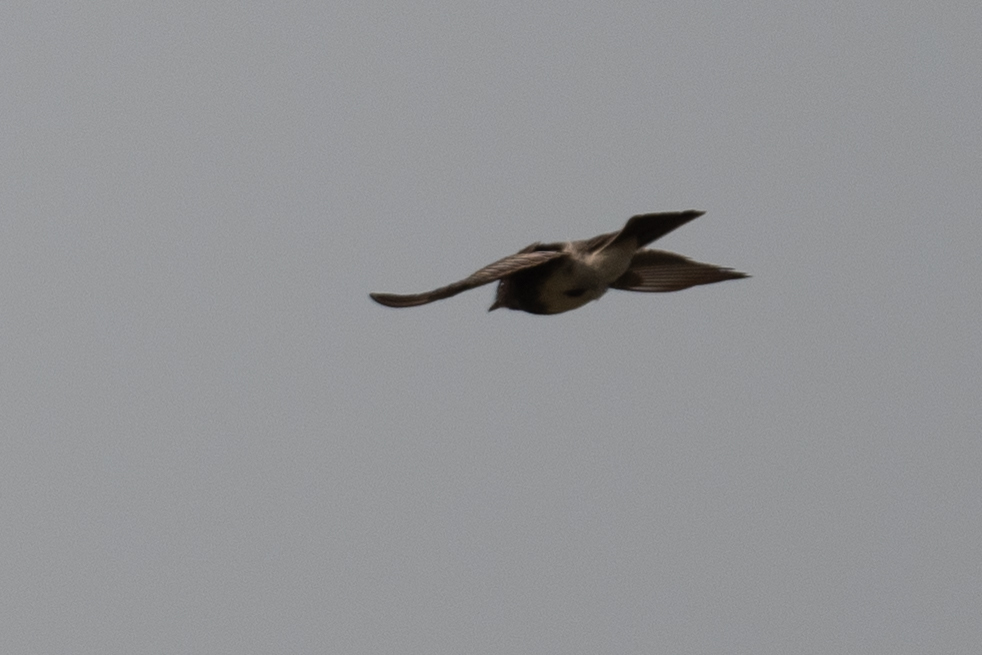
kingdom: Animalia
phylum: Chordata
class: Aves
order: Passeriformes
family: Tyrannidae
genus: Sayornis
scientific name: Sayornis nigricans
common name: Black phoebe
